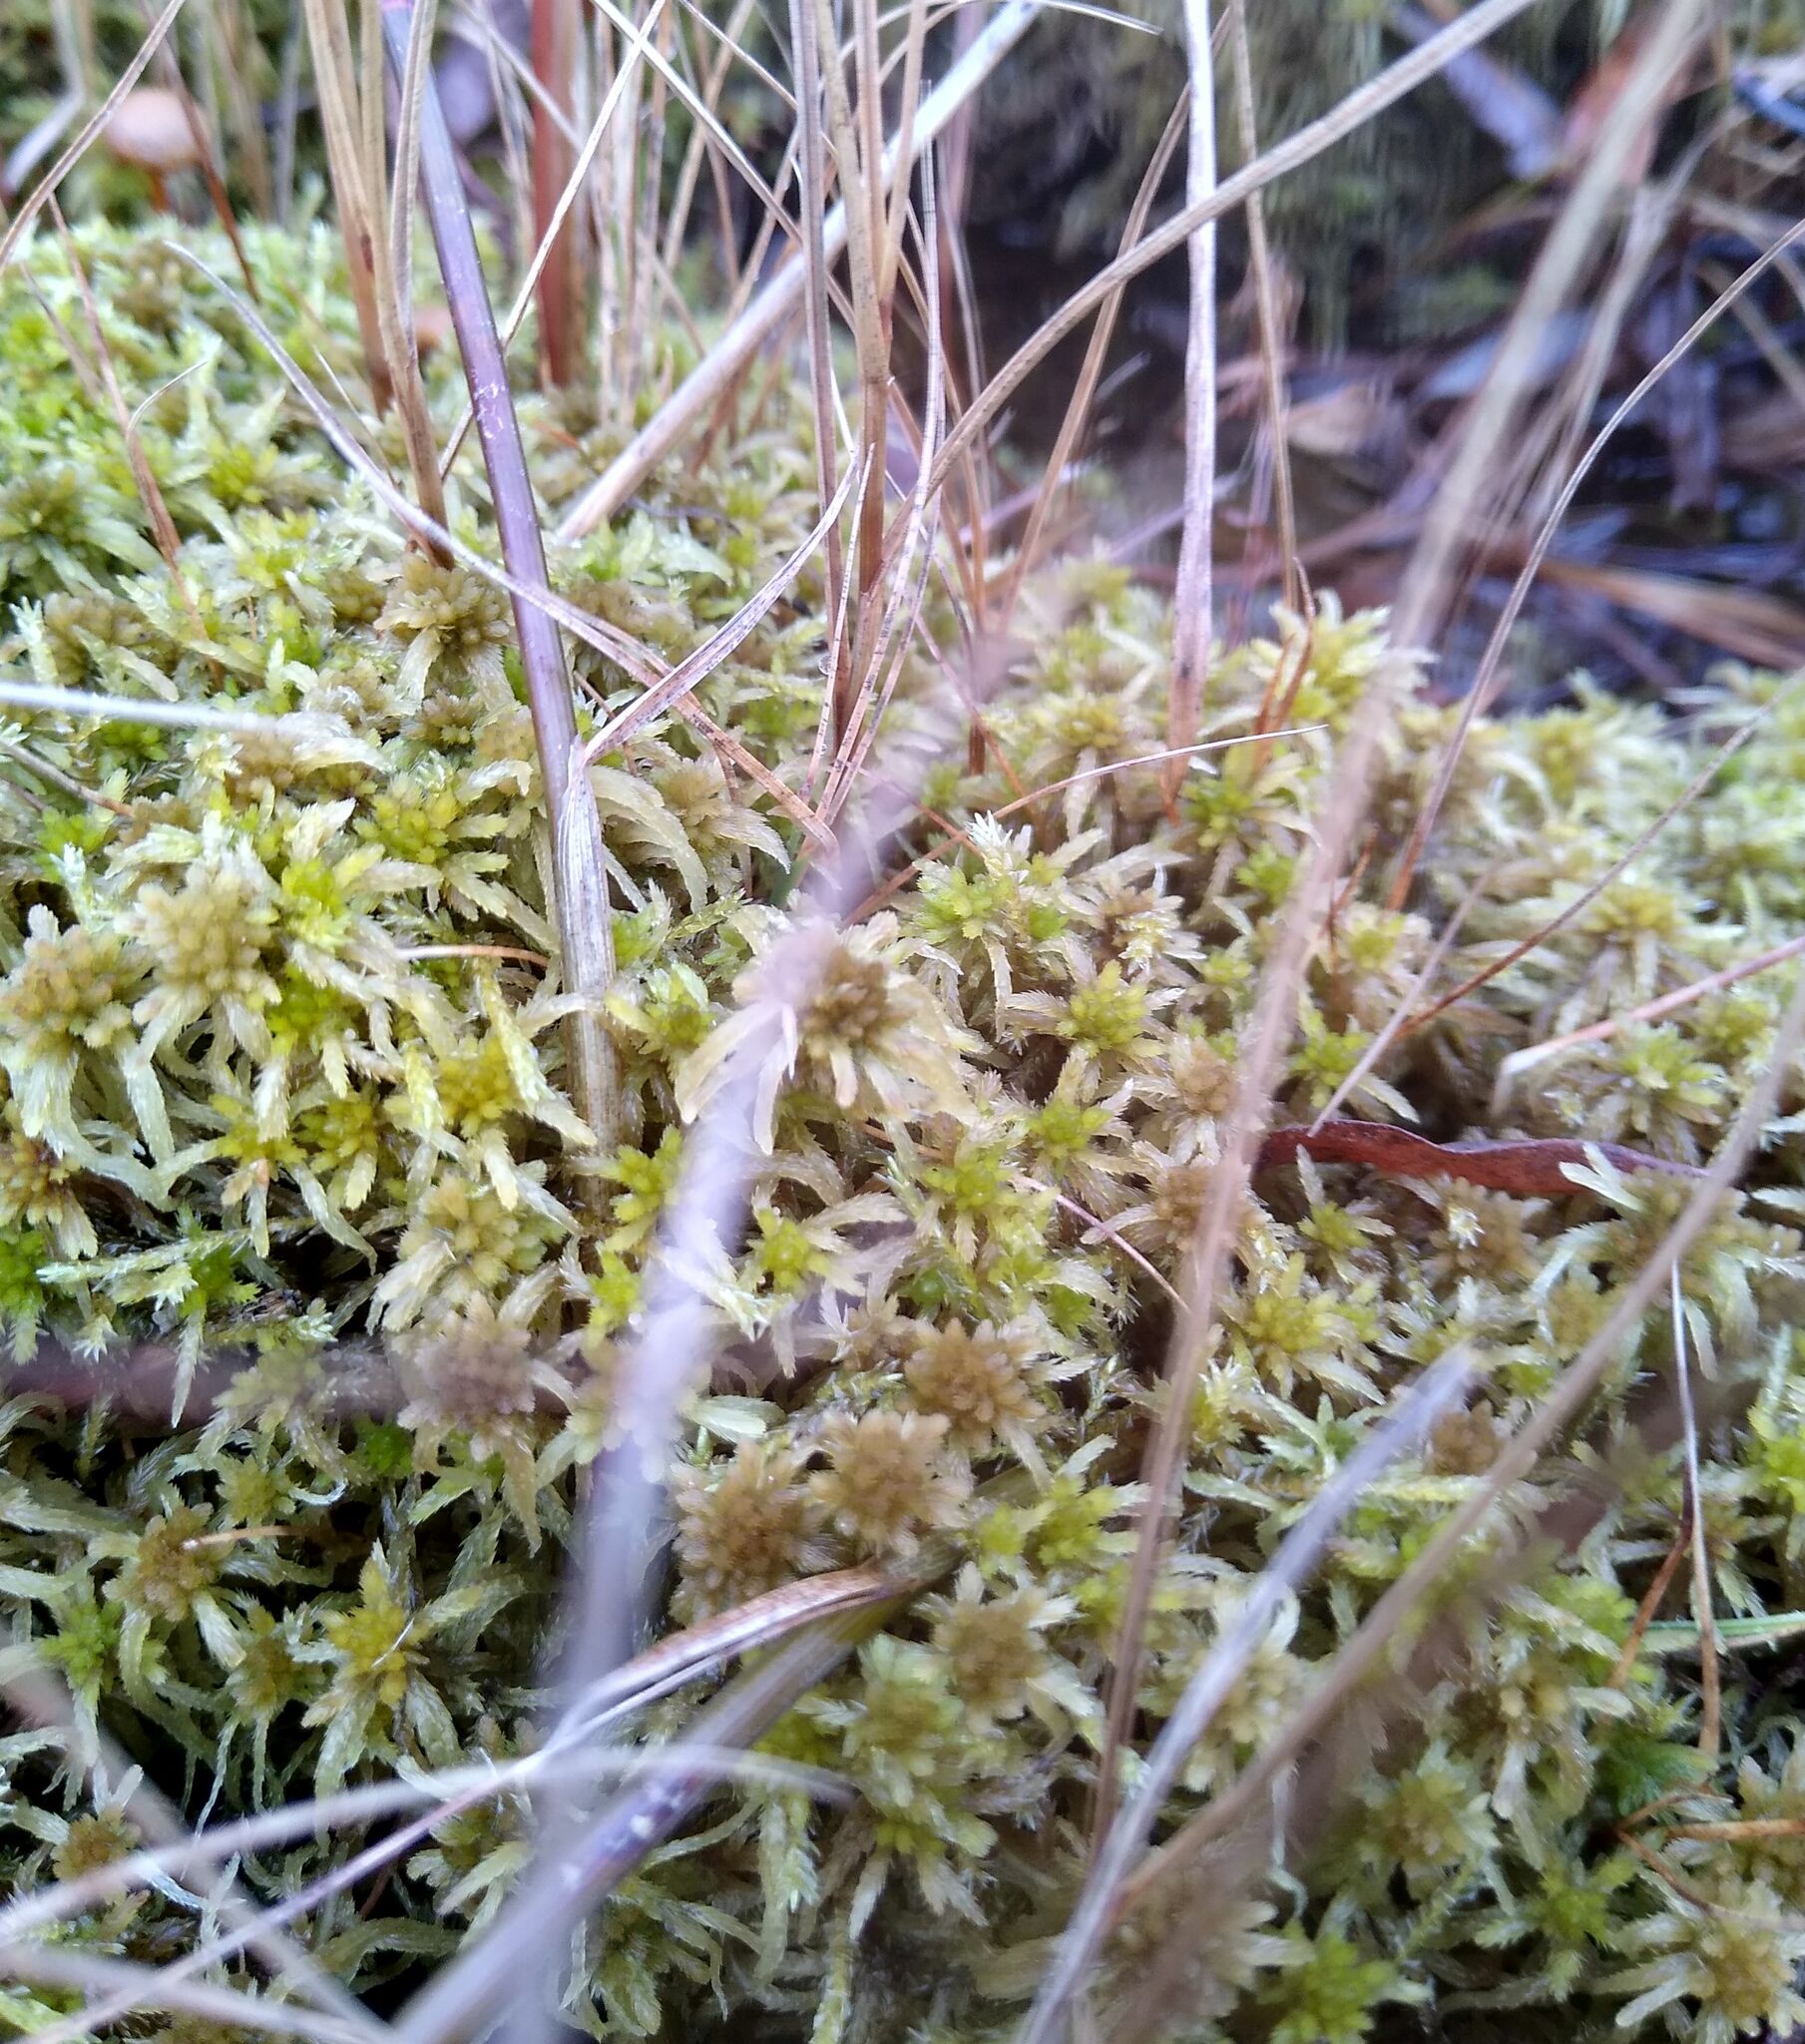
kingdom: Plantae
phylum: Bryophyta
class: Sphagnopsida
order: Sphagnales
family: Sphagnaceae
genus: Sphagnum
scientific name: Sphagnum squarrosum
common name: Shaggy peat moss
